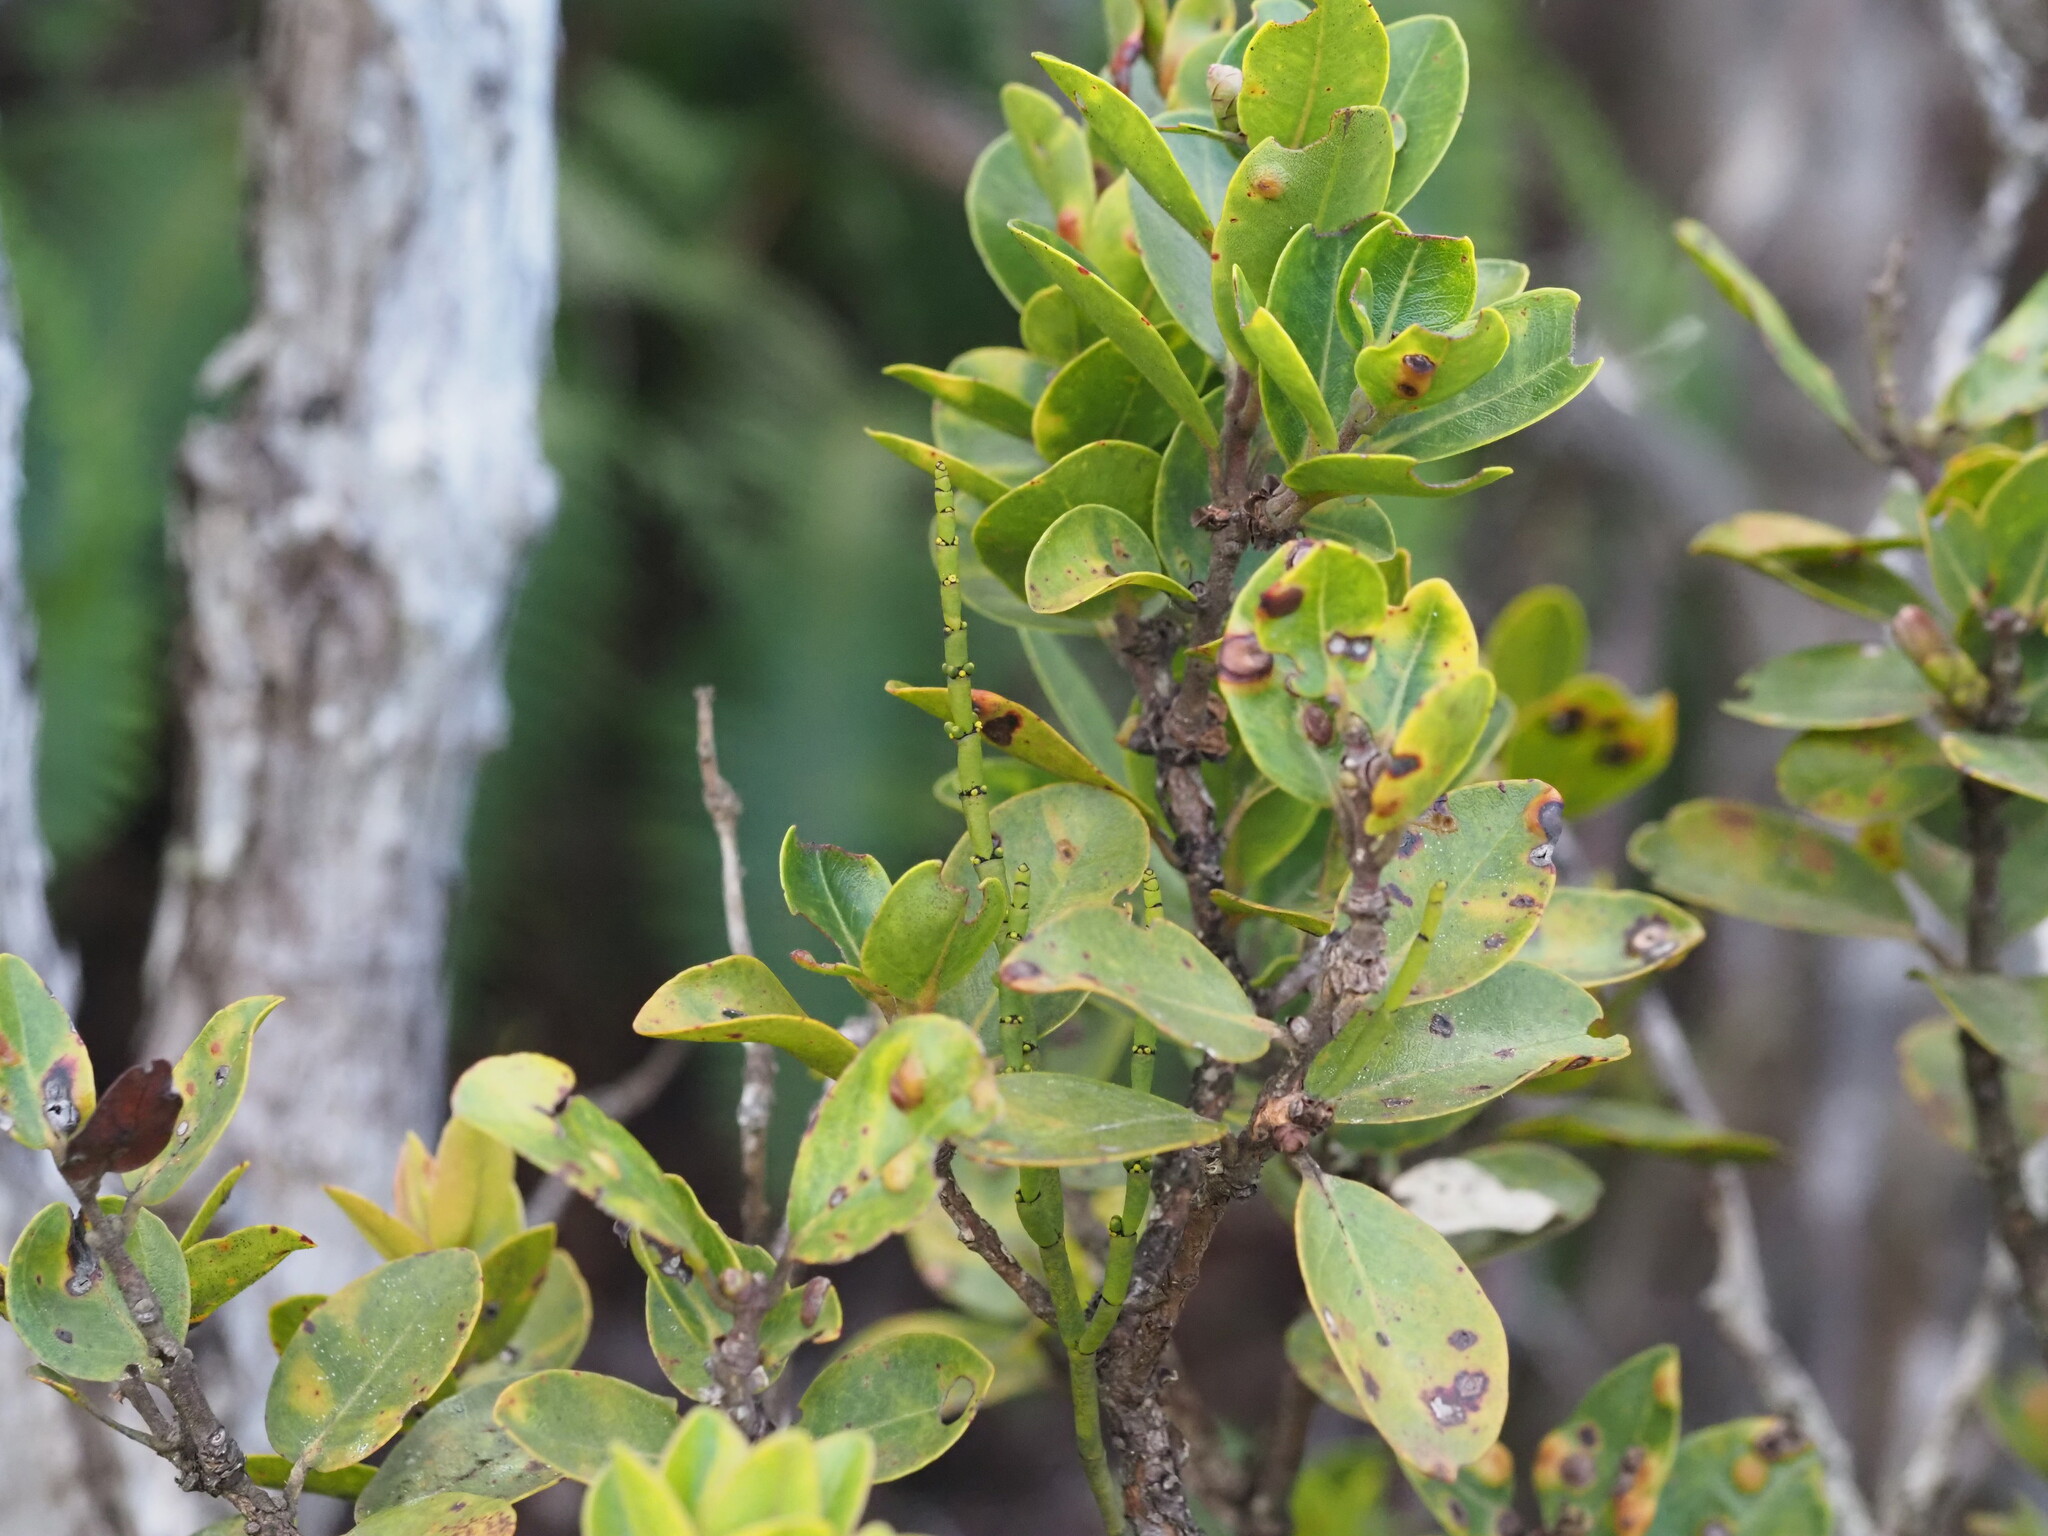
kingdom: Plantae
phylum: Tracheophyta
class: Magnoliopsida
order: Santalales
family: Viscaceae
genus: Korthalsella
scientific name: Korthalsella remyana
